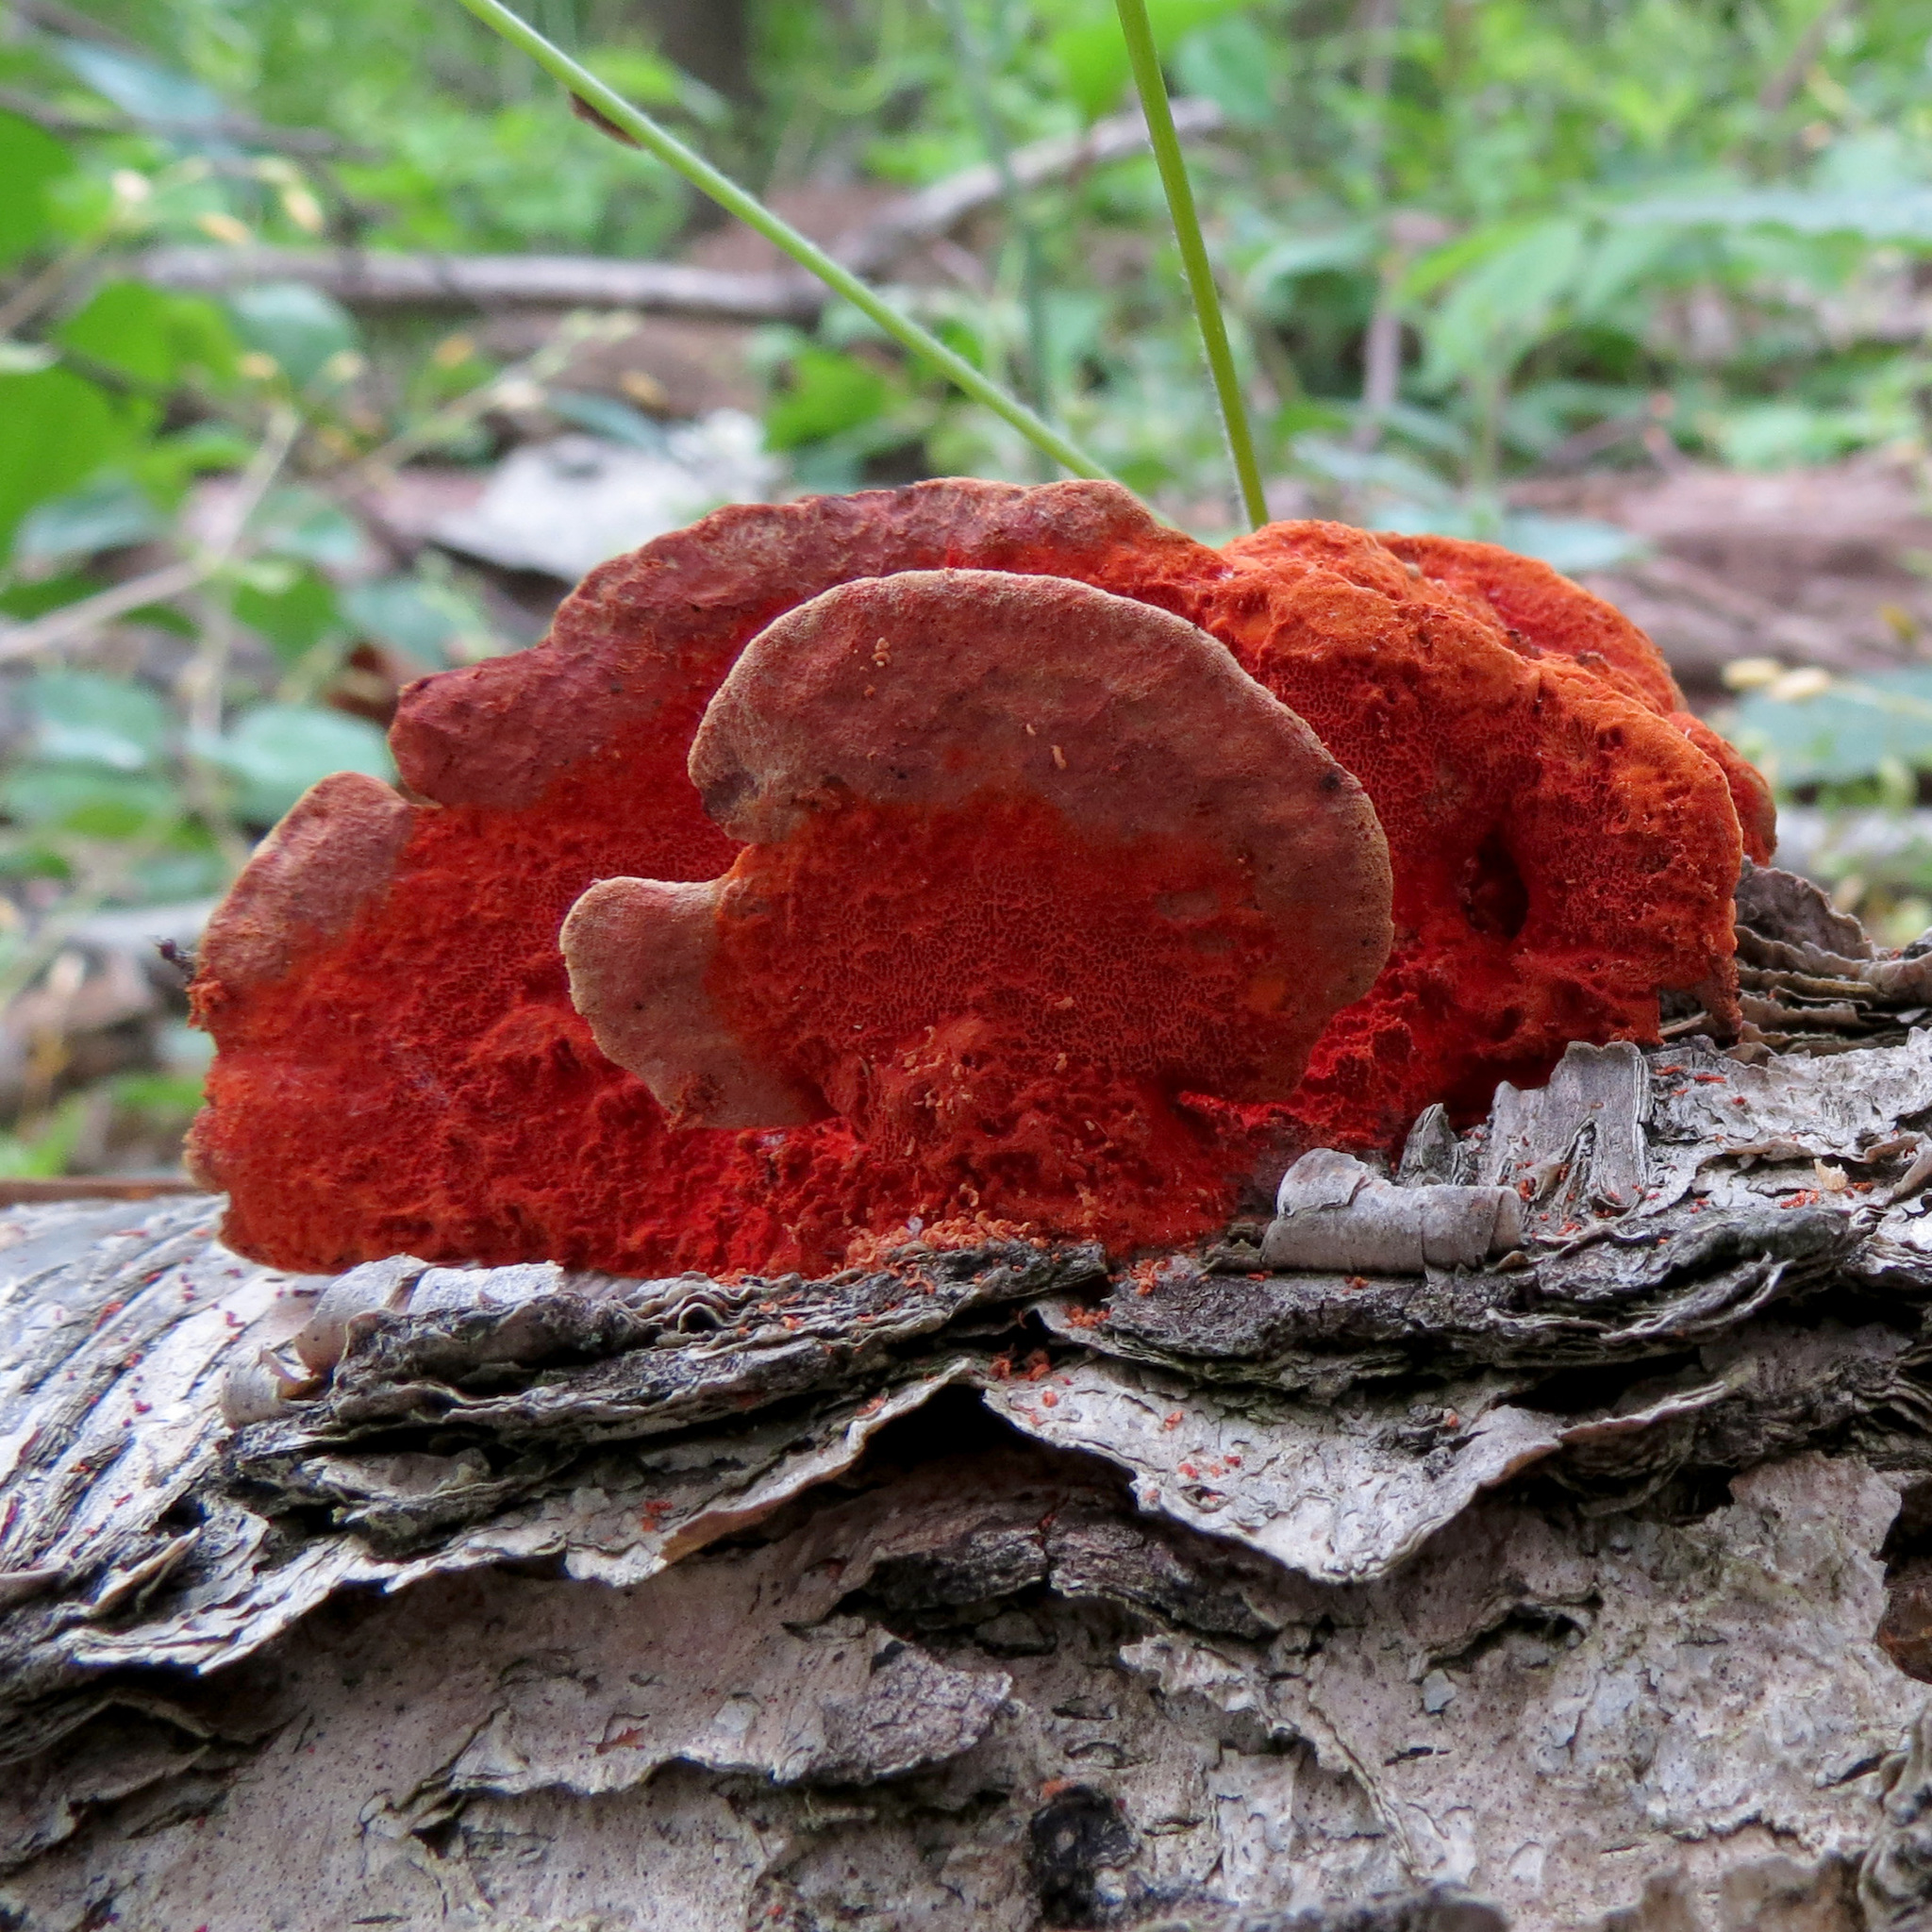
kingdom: Fungi
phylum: Basidiomycota
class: Agaricomycetes
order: Polyporales
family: Polyporaceae
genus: Trametes
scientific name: Trametes coccinea
